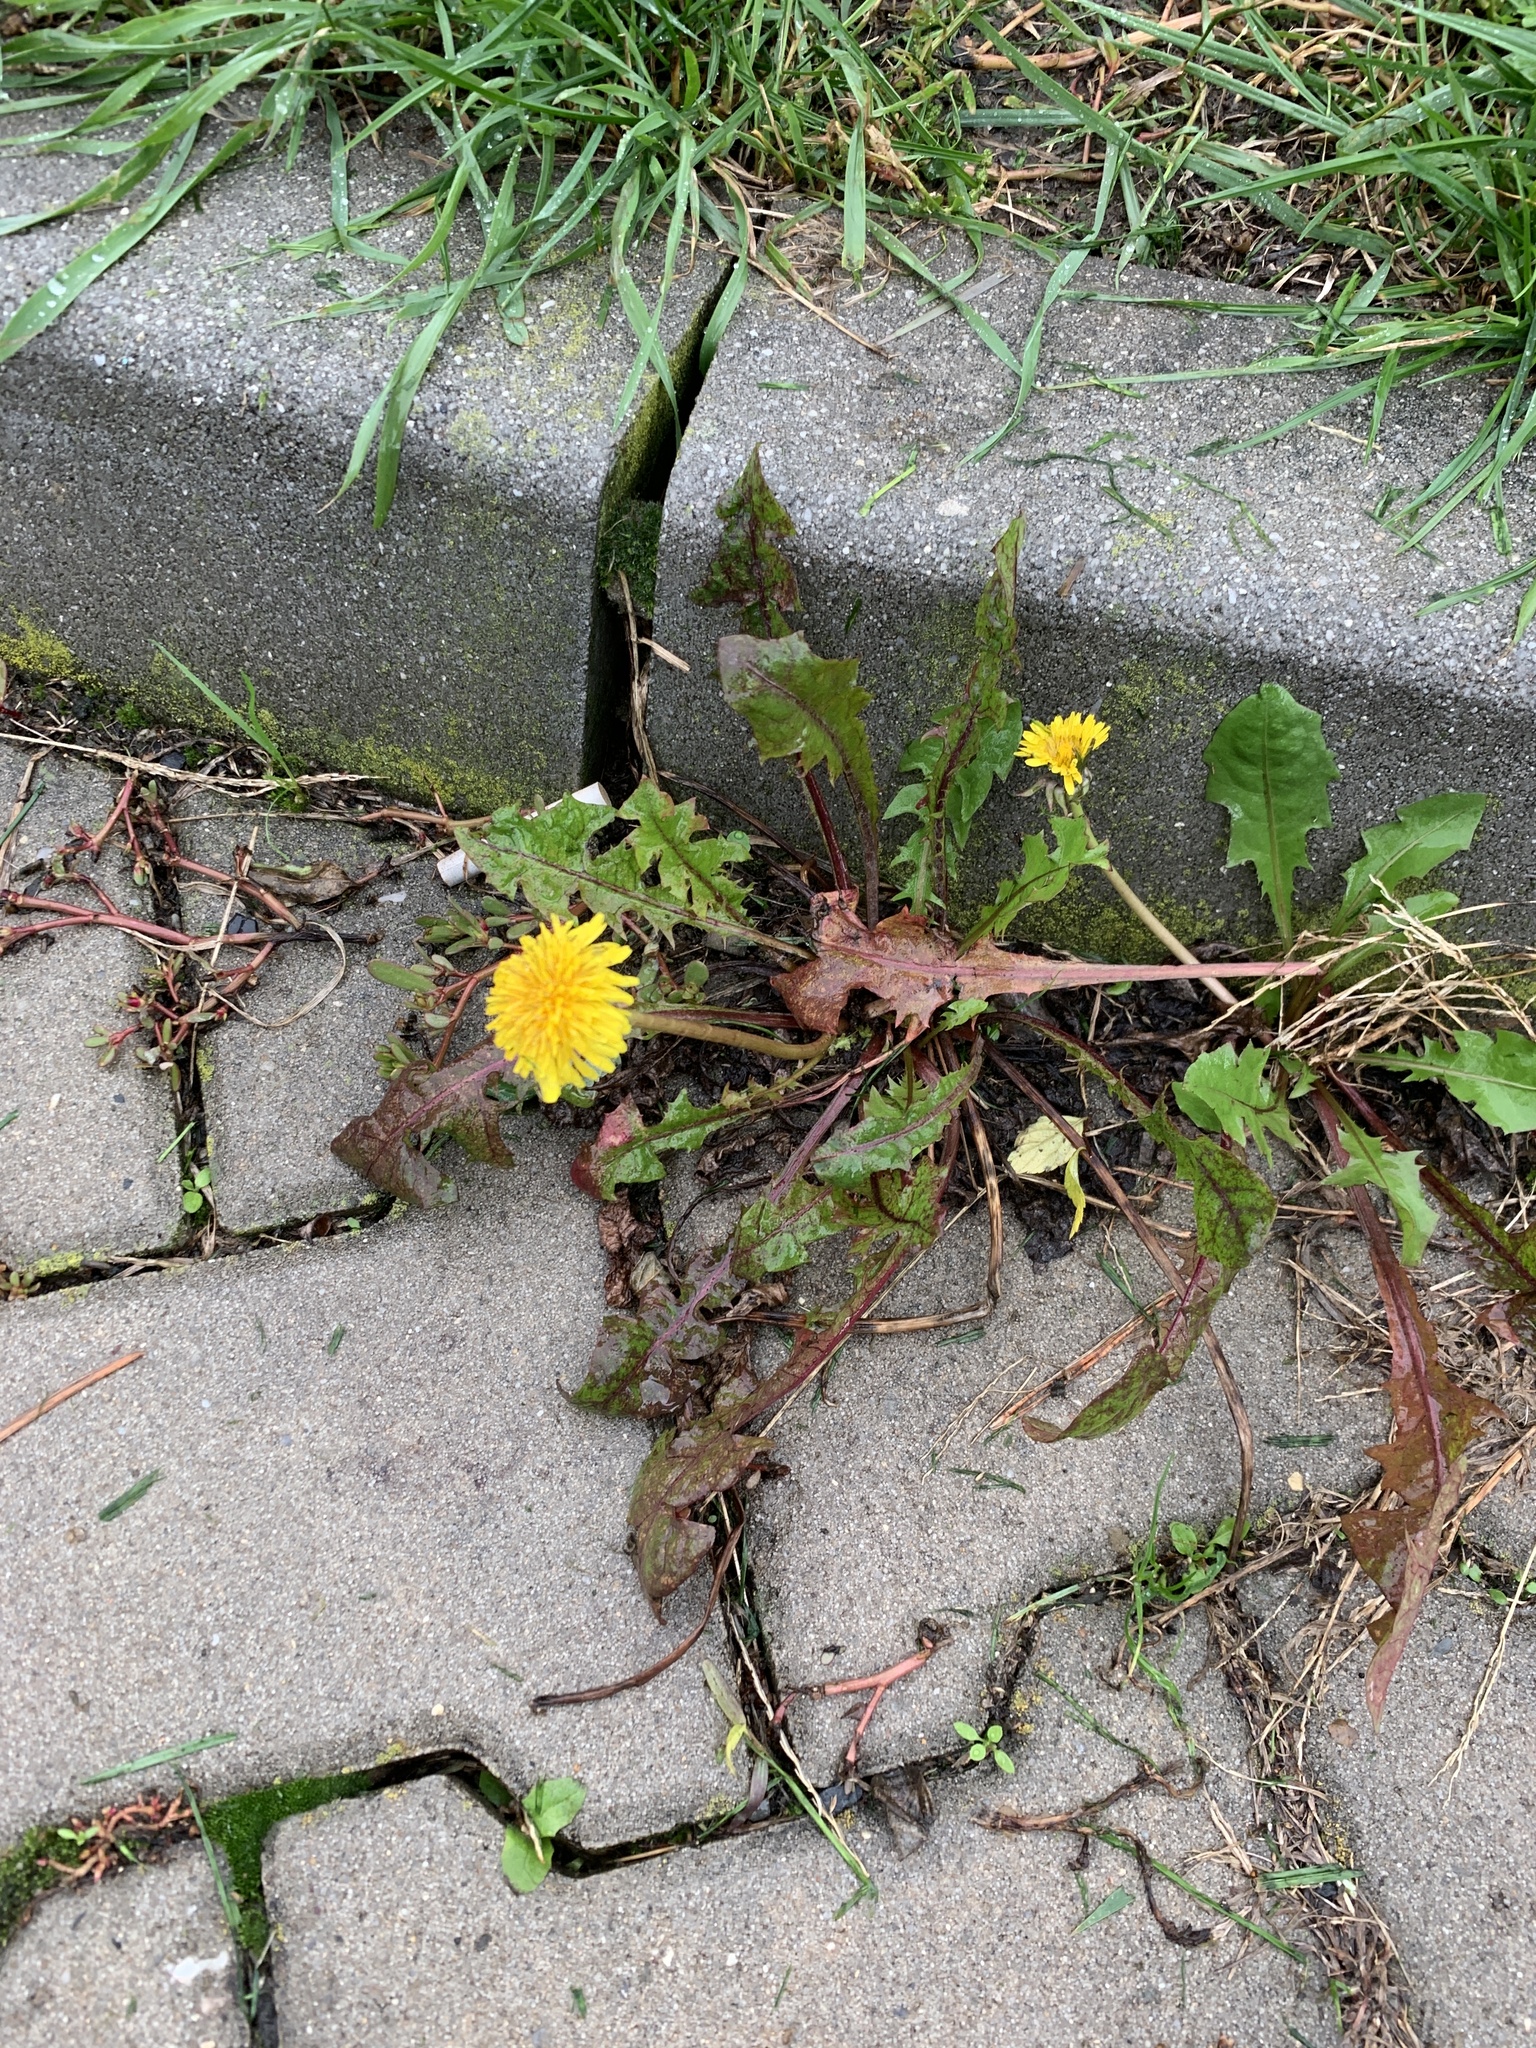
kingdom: Plantae
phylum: Tracheophyta
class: Magnoliopsida
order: Asterales
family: Asteraceae
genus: Taraxacum
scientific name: Taraxacum officinale
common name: Common dandelion
